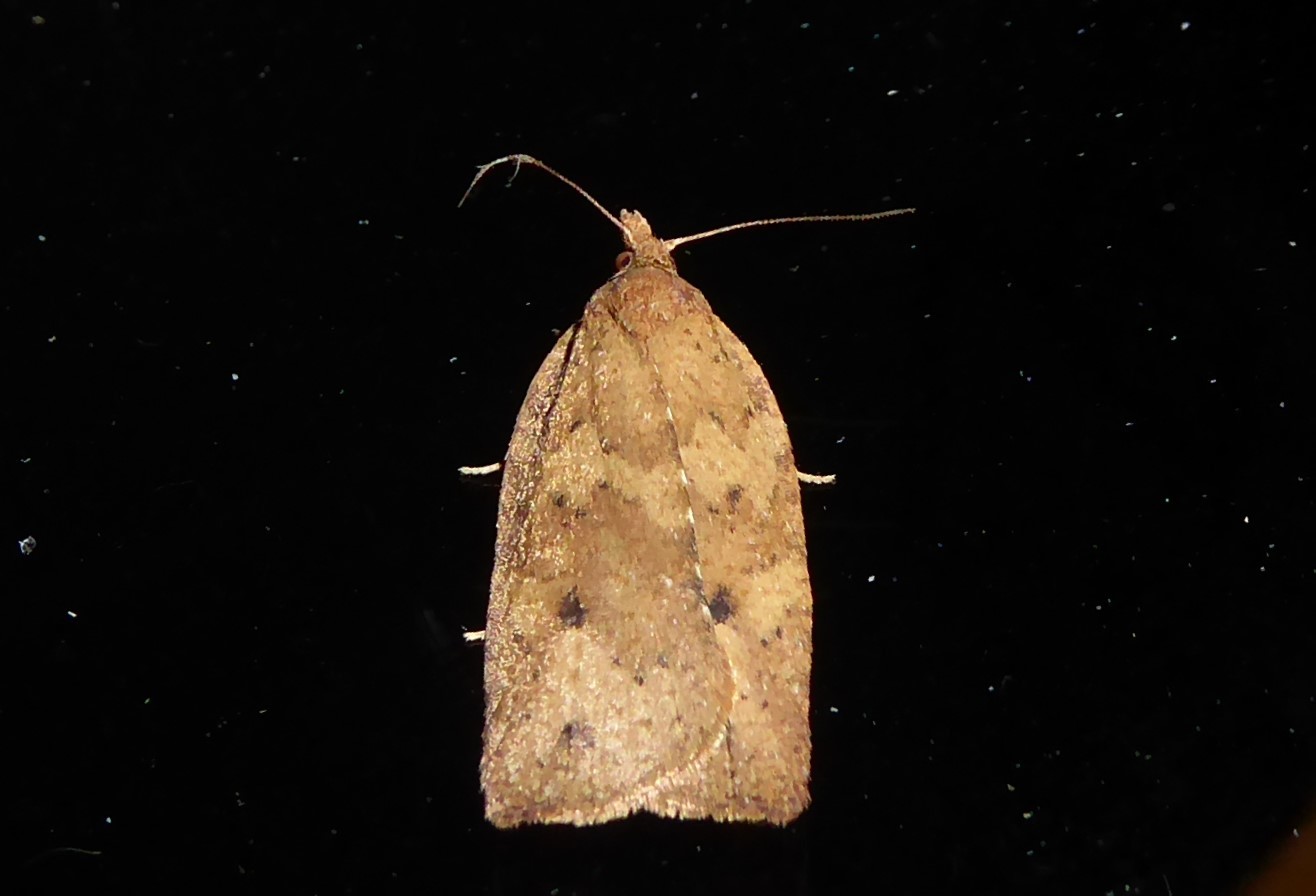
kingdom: Animalia
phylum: Arthropoda
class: Insecta
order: Lepidoptera
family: Tortricidae
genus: Planotortrix
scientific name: Planotortrix notophaea
